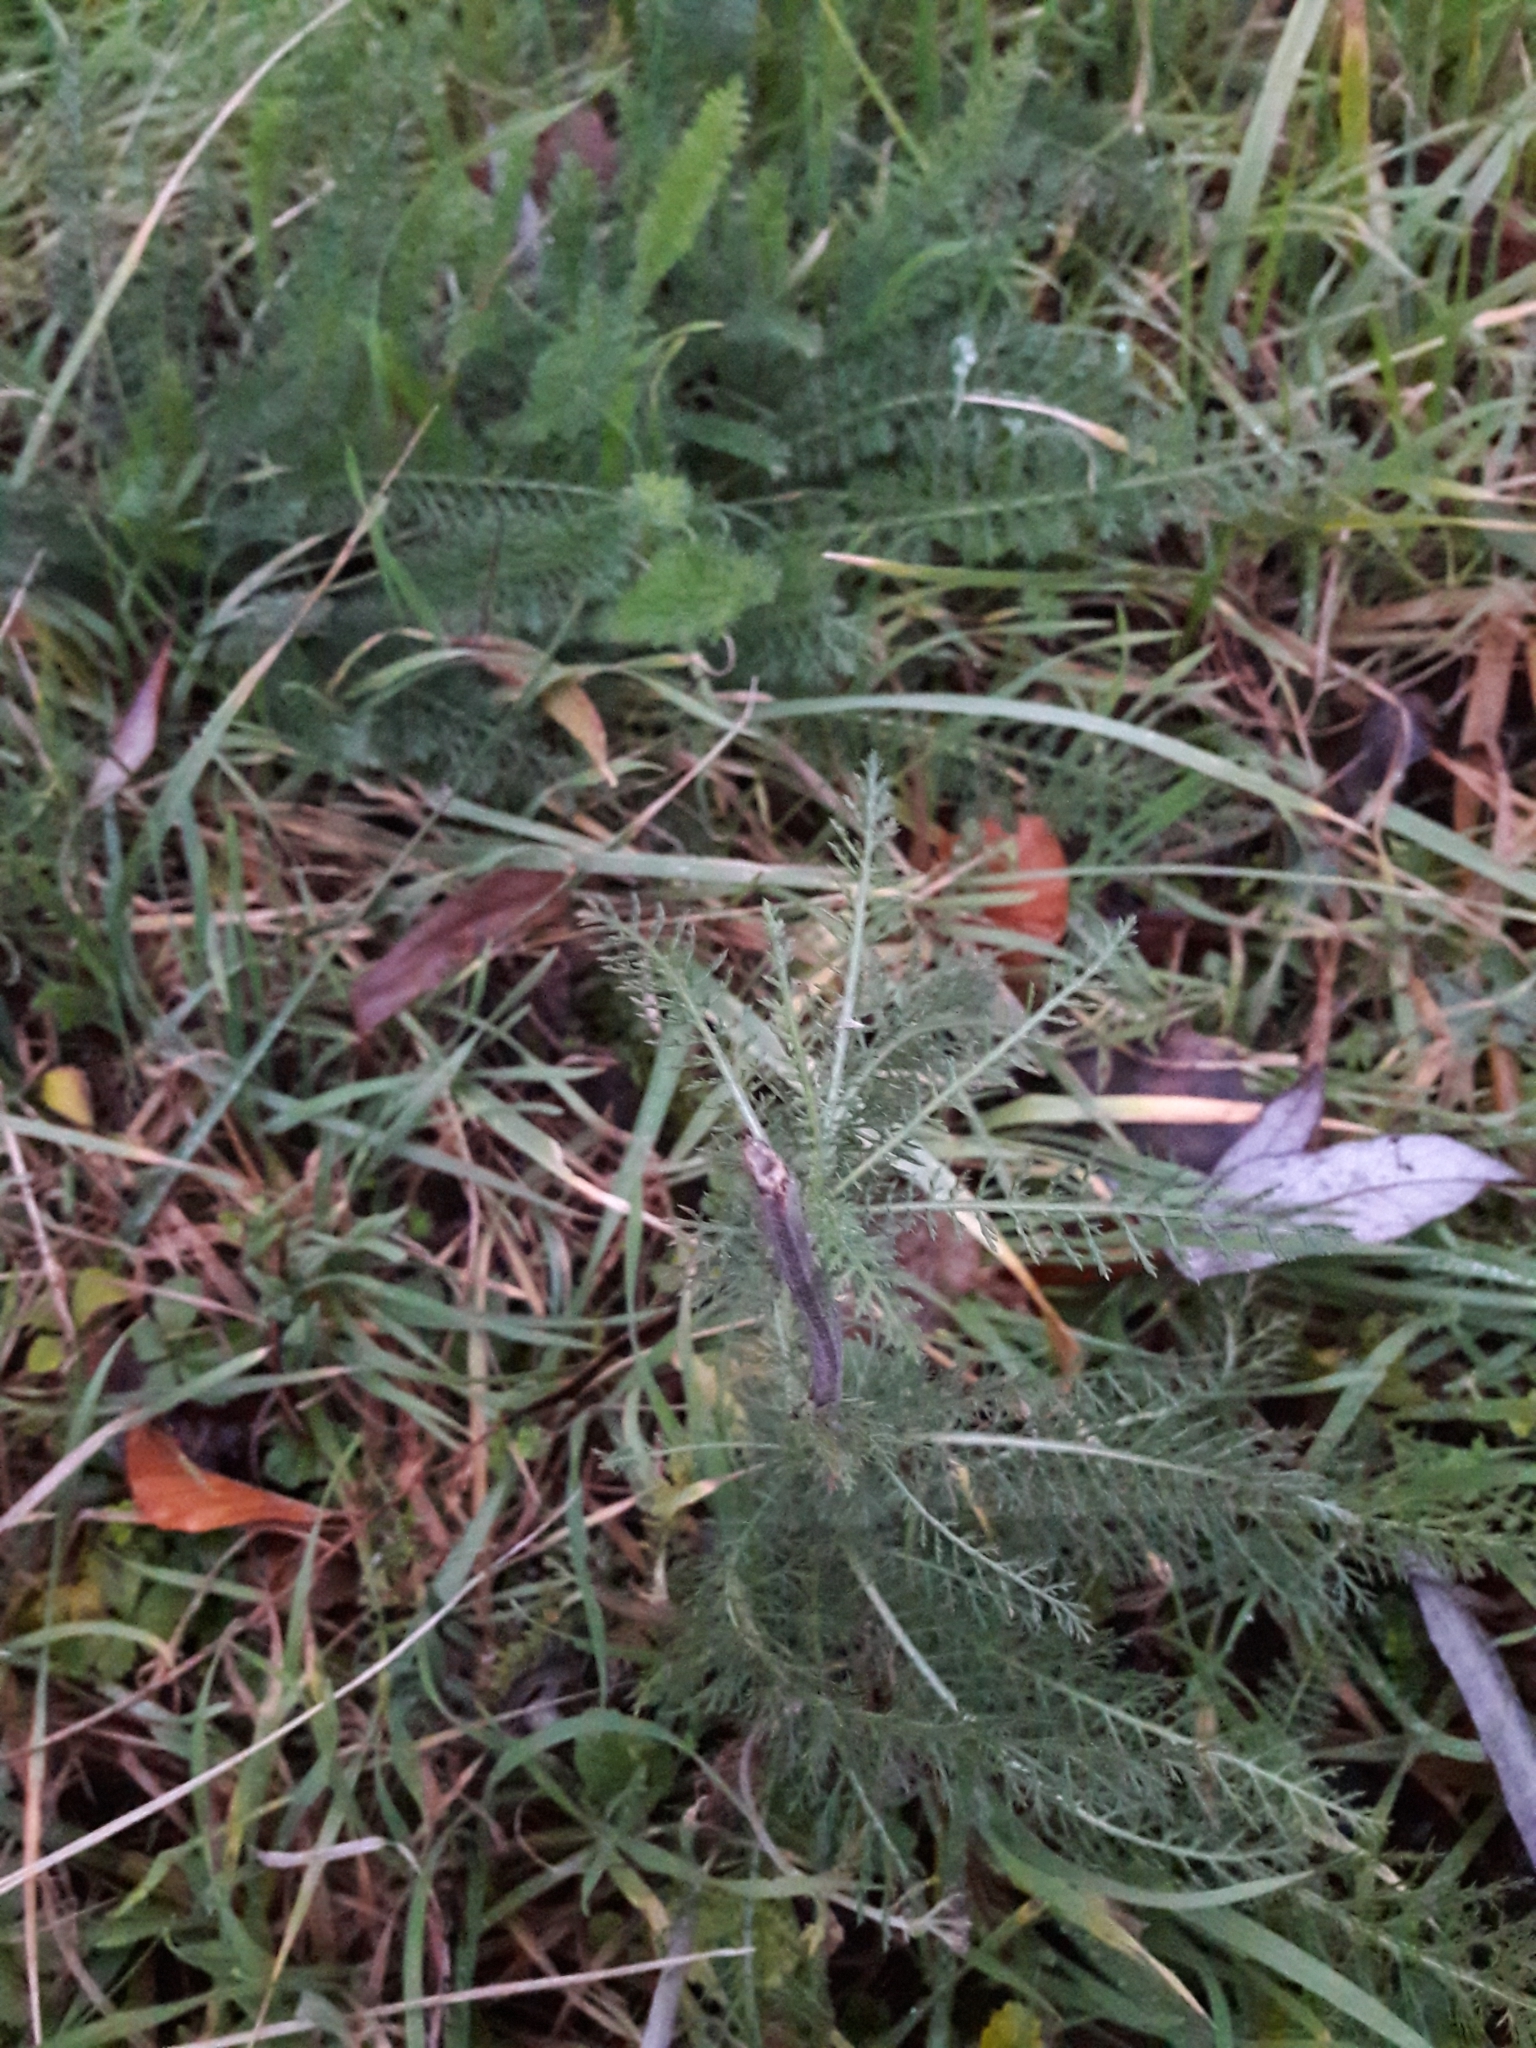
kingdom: Plantae
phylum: Tracheophyta
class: Magnoliopsida
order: Asterales
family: Asteraceae
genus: Achillea
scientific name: Achillea millefolium
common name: Yarrow
